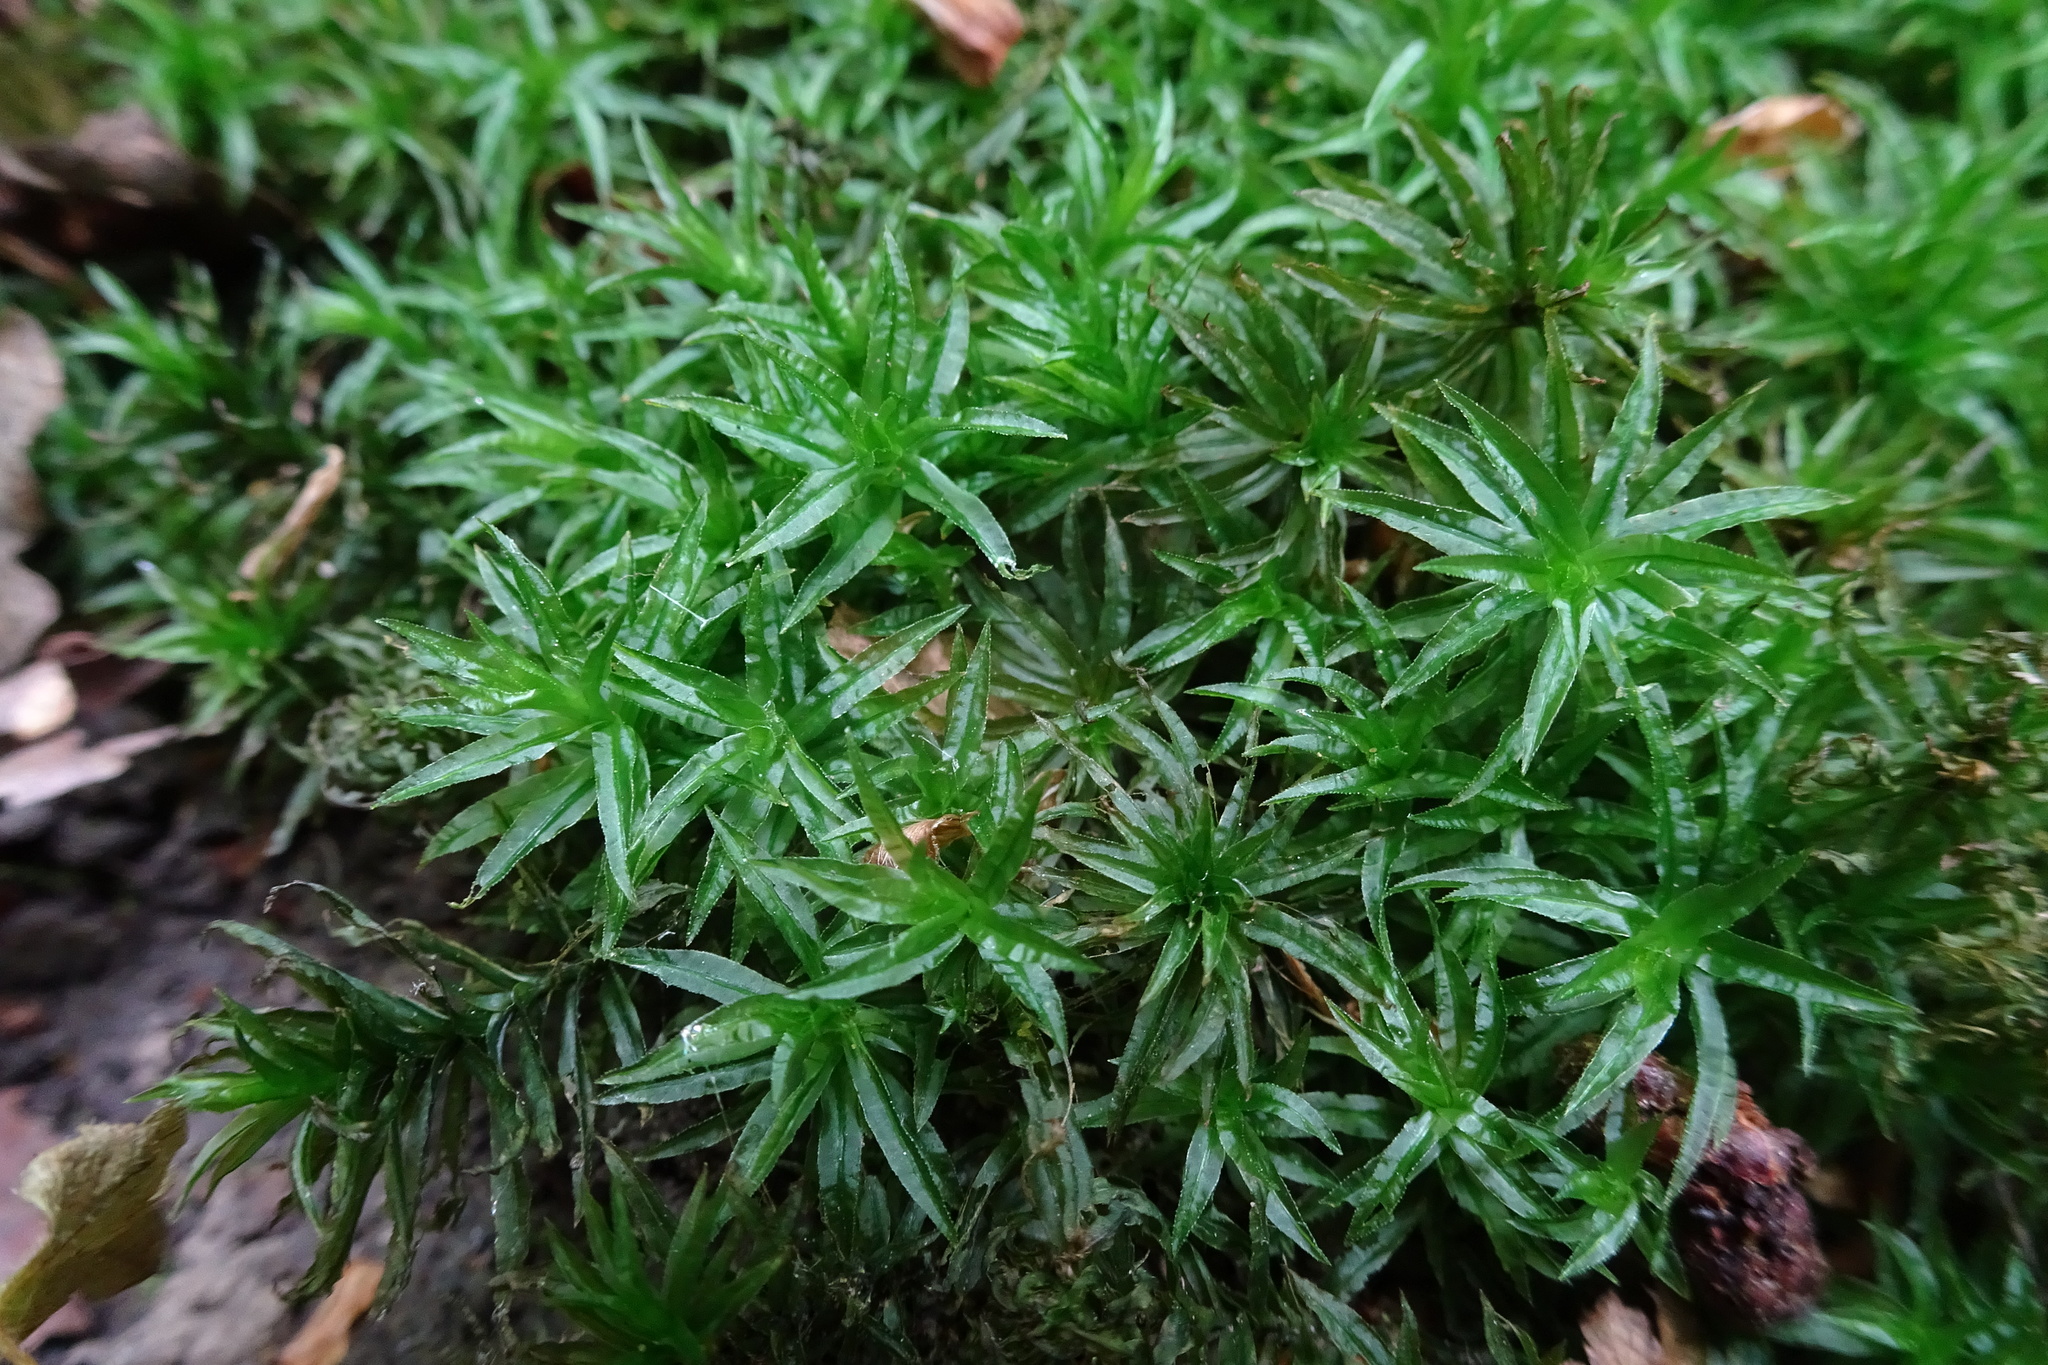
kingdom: Plantae
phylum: Bryophyta
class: Polytrichopsida
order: Polytrichales
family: Polytrichaceae
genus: Atrichum
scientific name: Atrichum undulatum
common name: Common smoothcap
